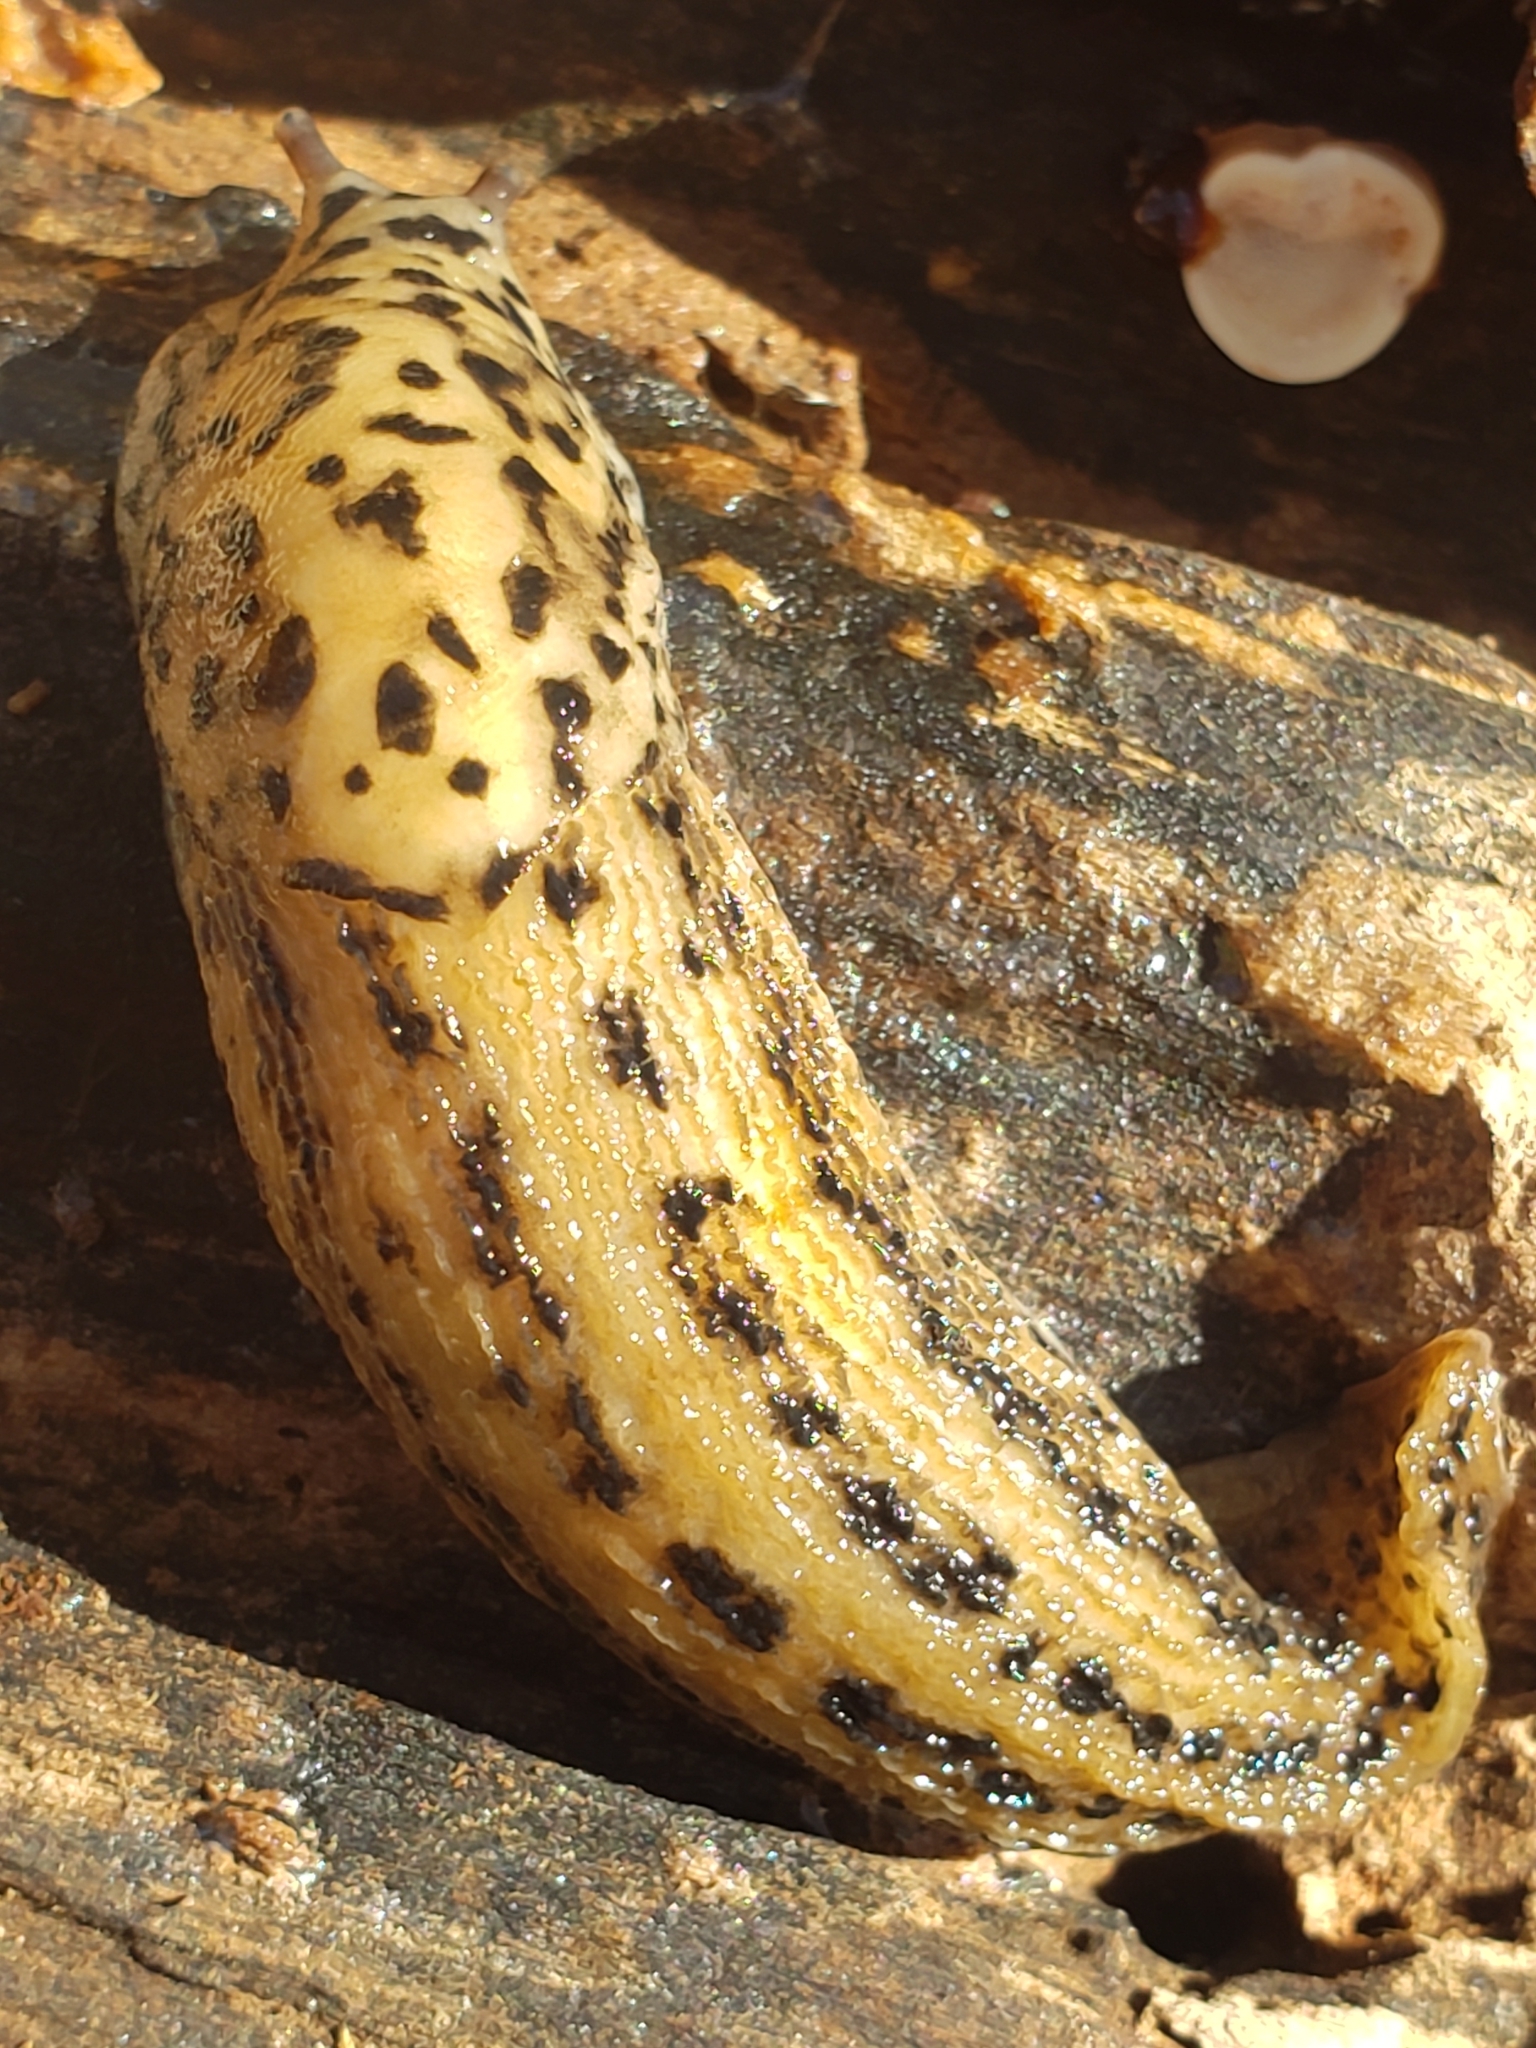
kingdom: Animalia
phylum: Mollusca
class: Gastropoda
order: Stylommatophora
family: Limacidae
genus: Limax
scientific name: Limax maximus
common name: Great grey slug
